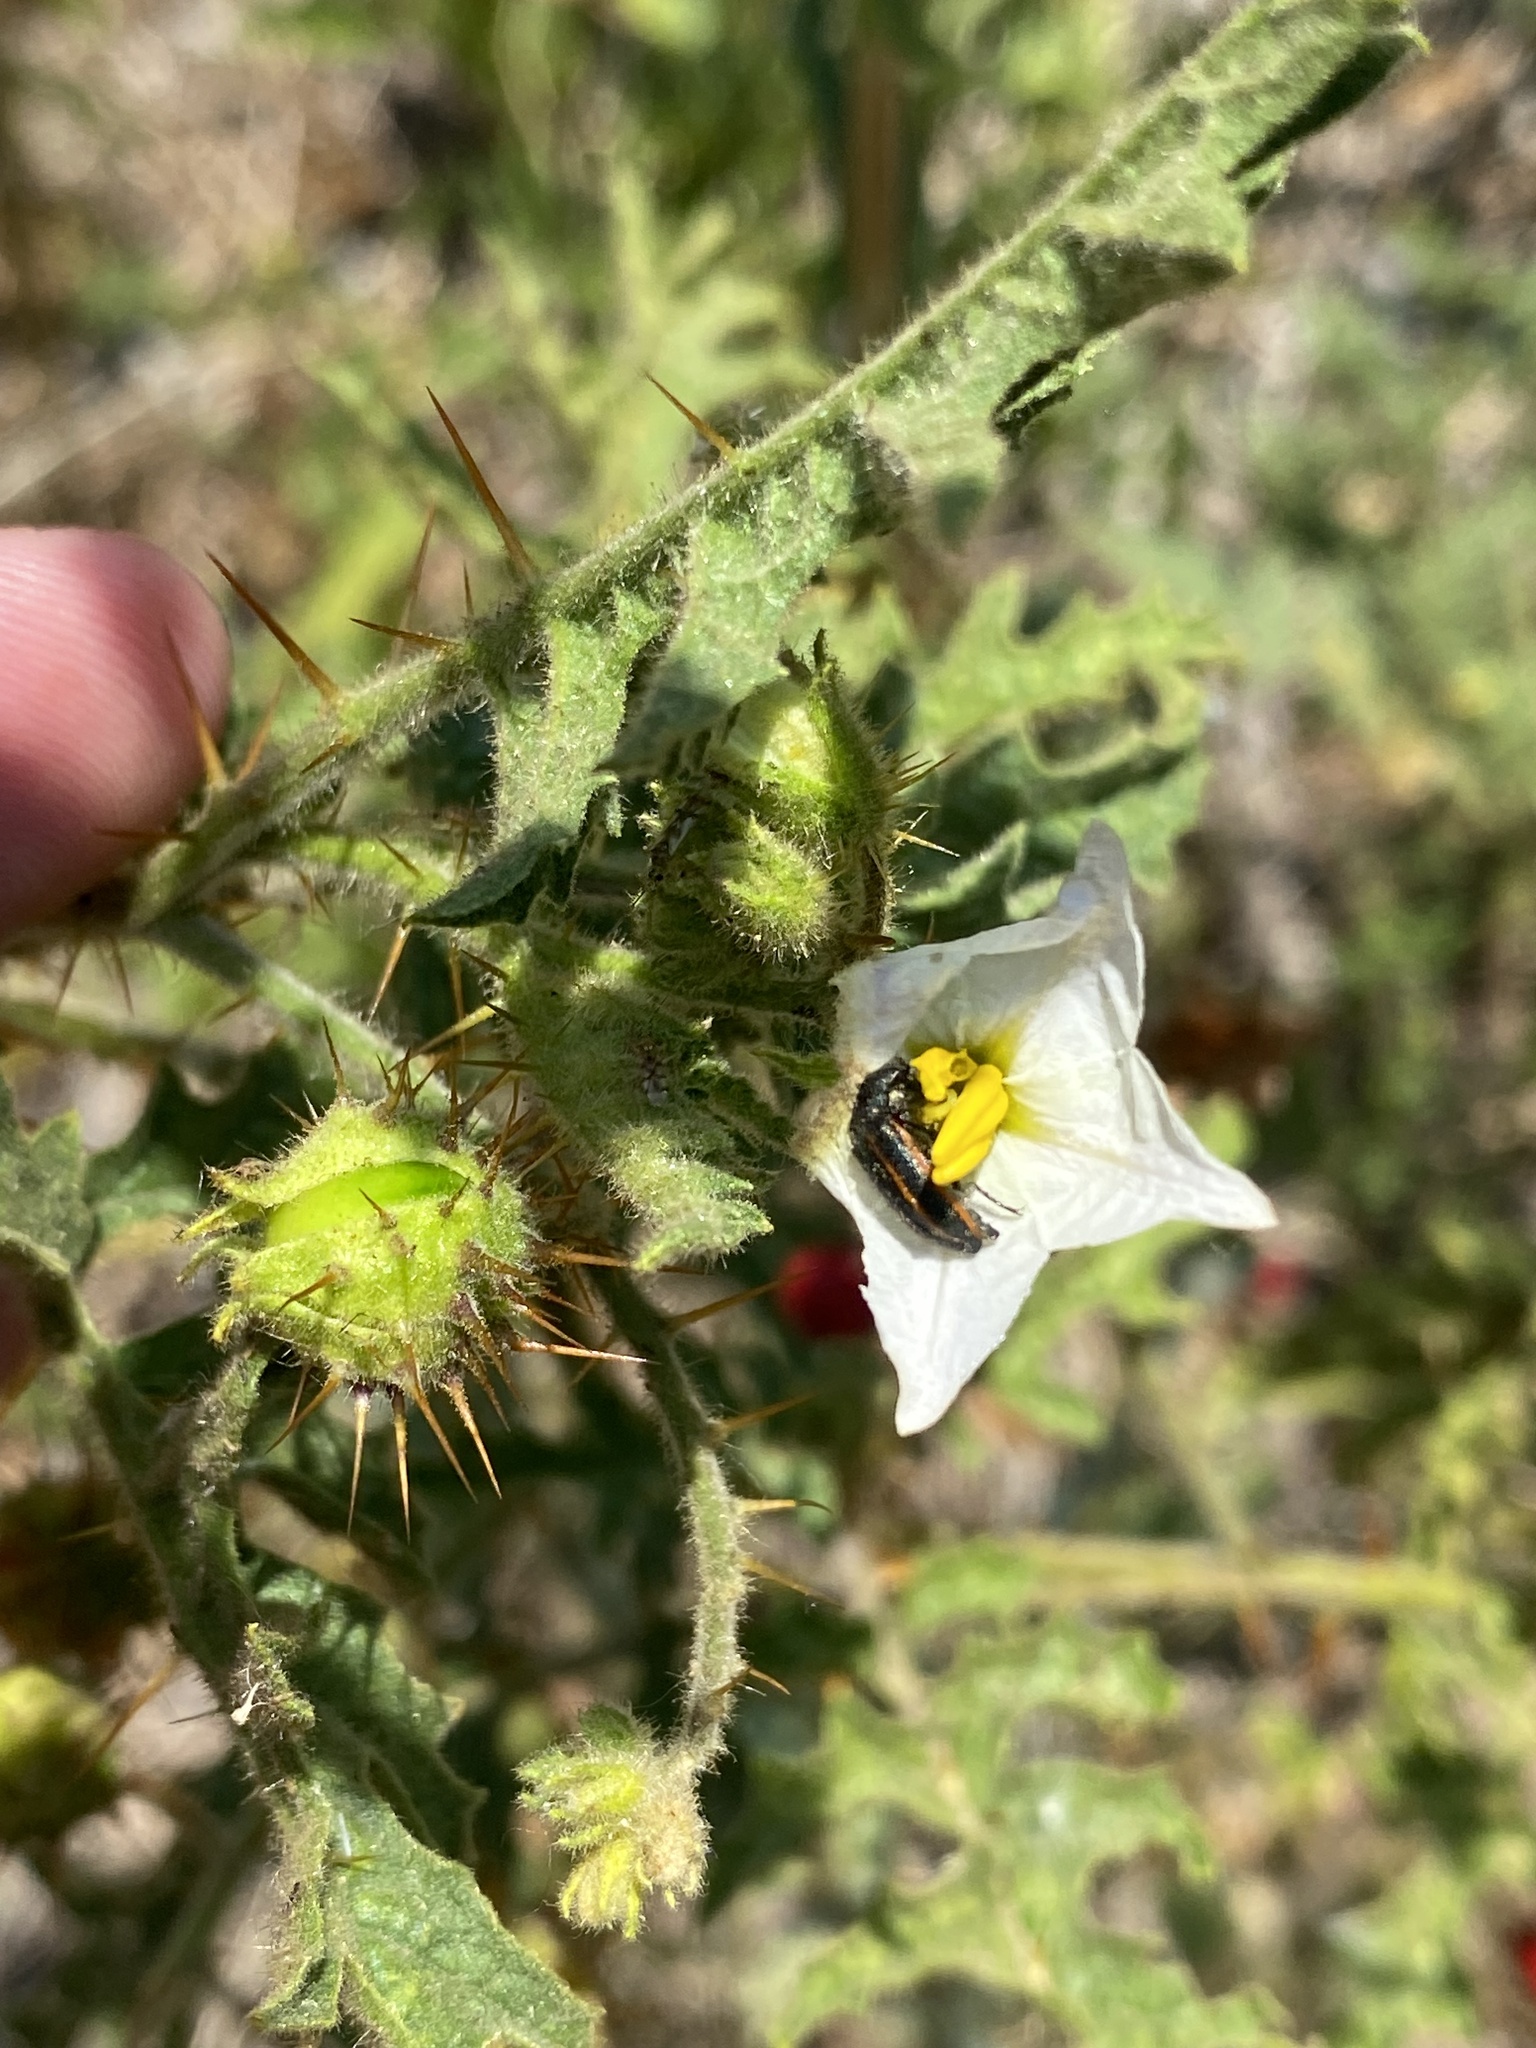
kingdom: Plantae
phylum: Tracheophyta
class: Magnoliopsida
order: Solanales
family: Solanaceae
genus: Solanum
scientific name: Solanum sisymbriifolium
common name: Red buffalo-bur
